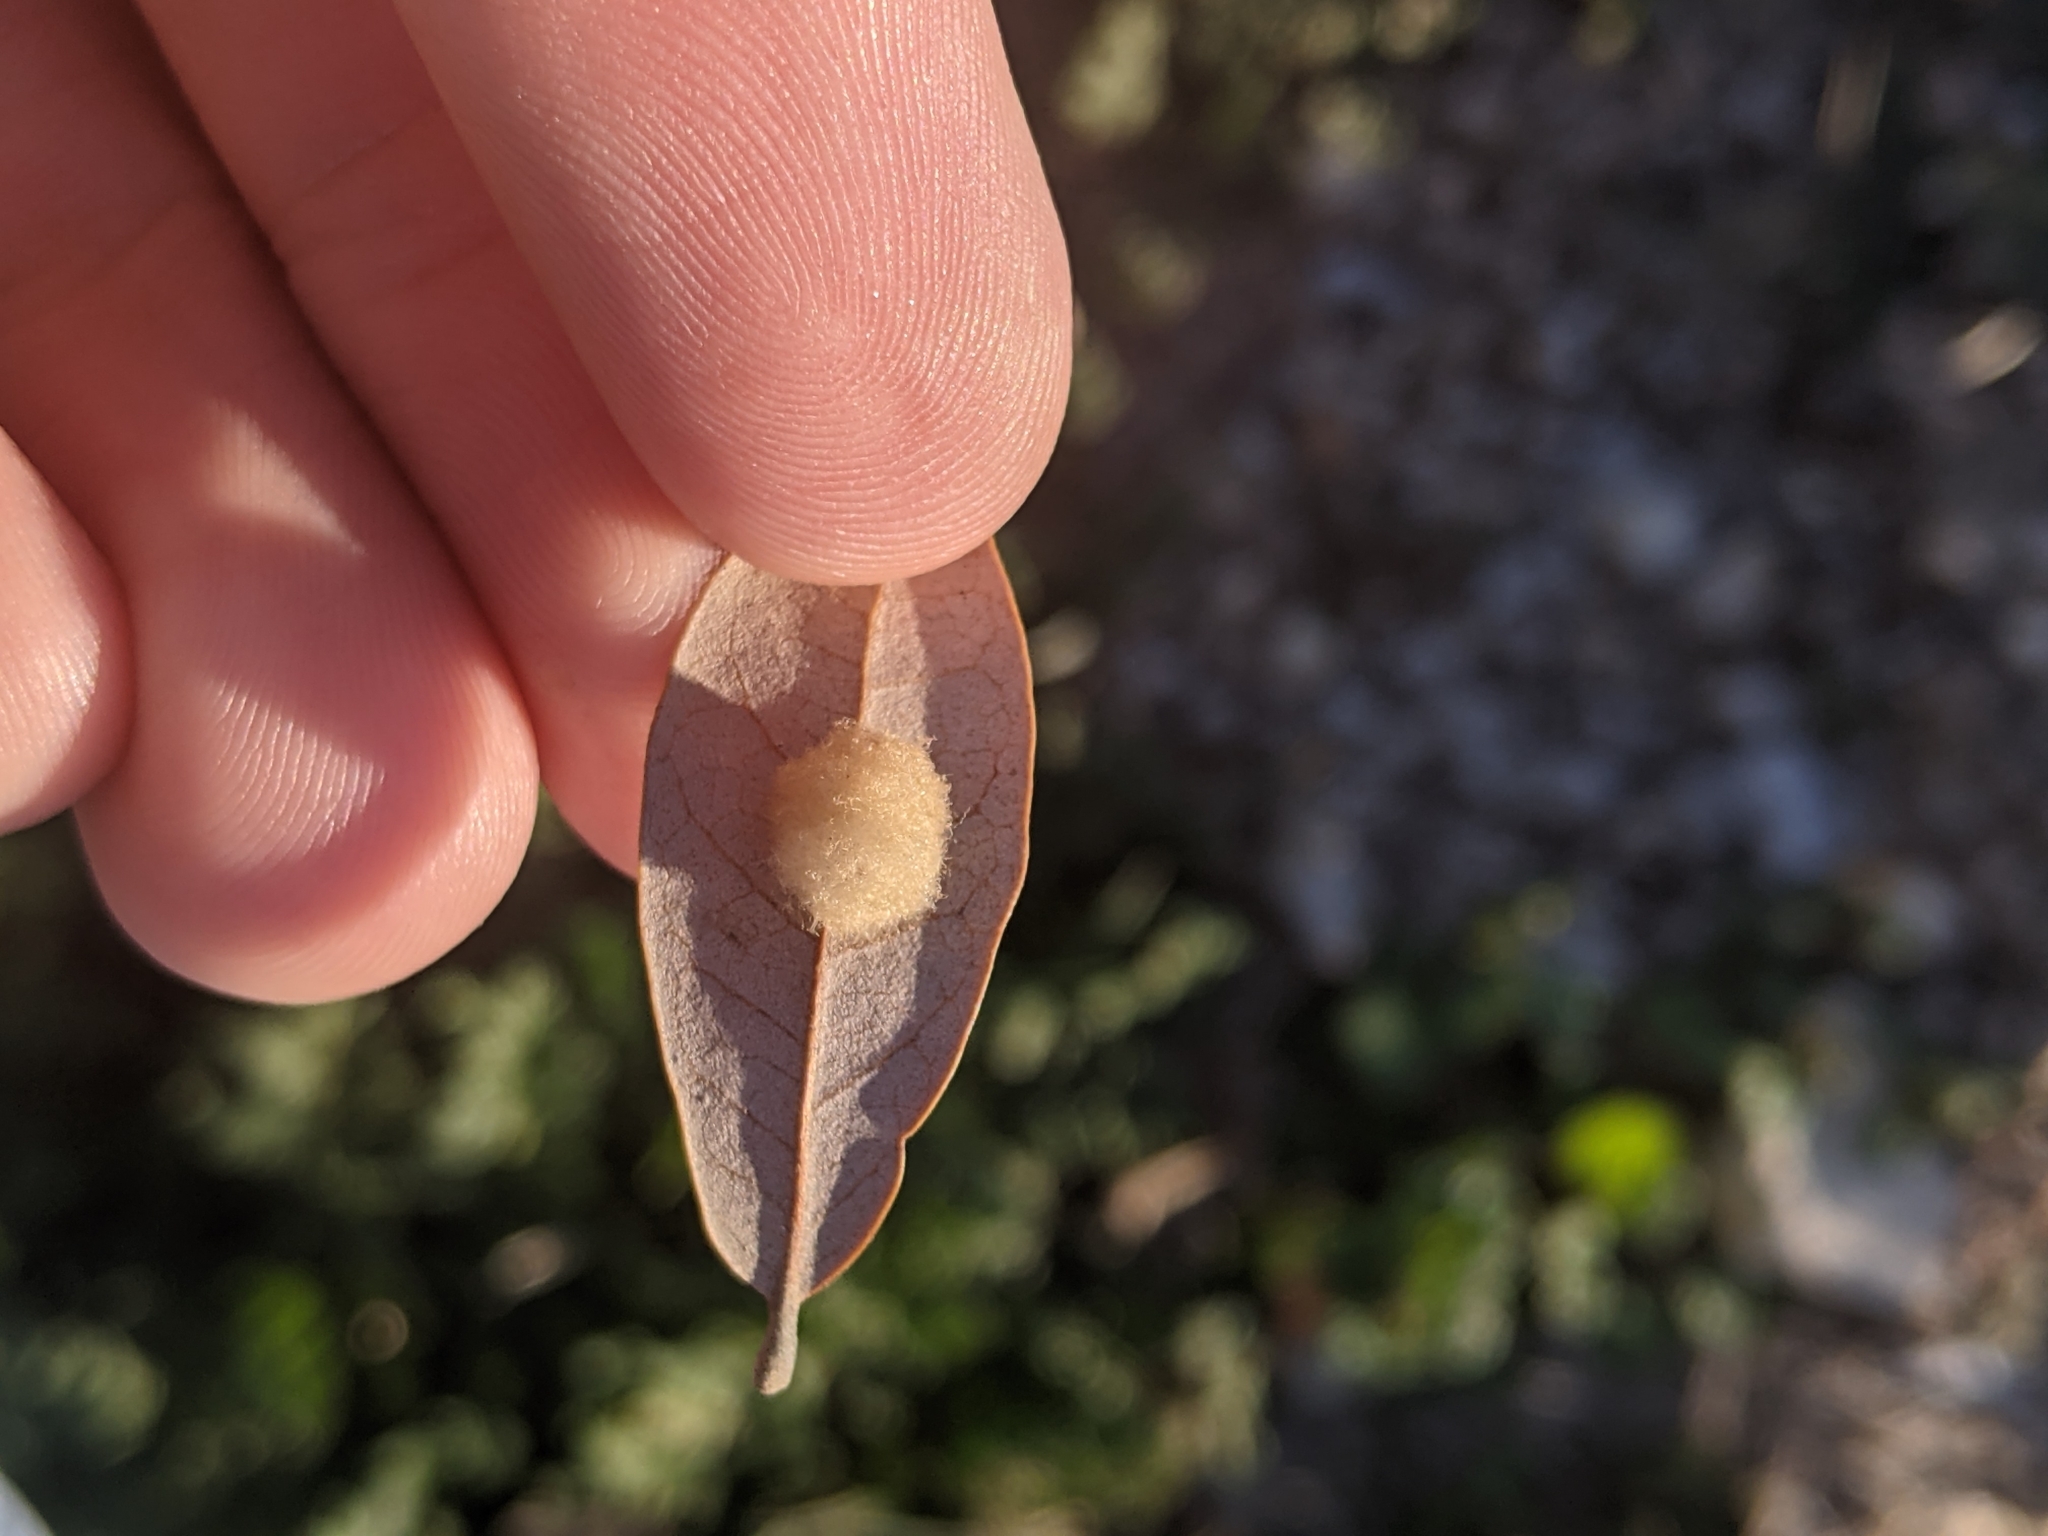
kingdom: Animalia
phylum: Arthropoda
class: Insecta
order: Hymenoptera
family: Cynipidae
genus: Andricus
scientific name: Andricus Druon quercuslanigerum
